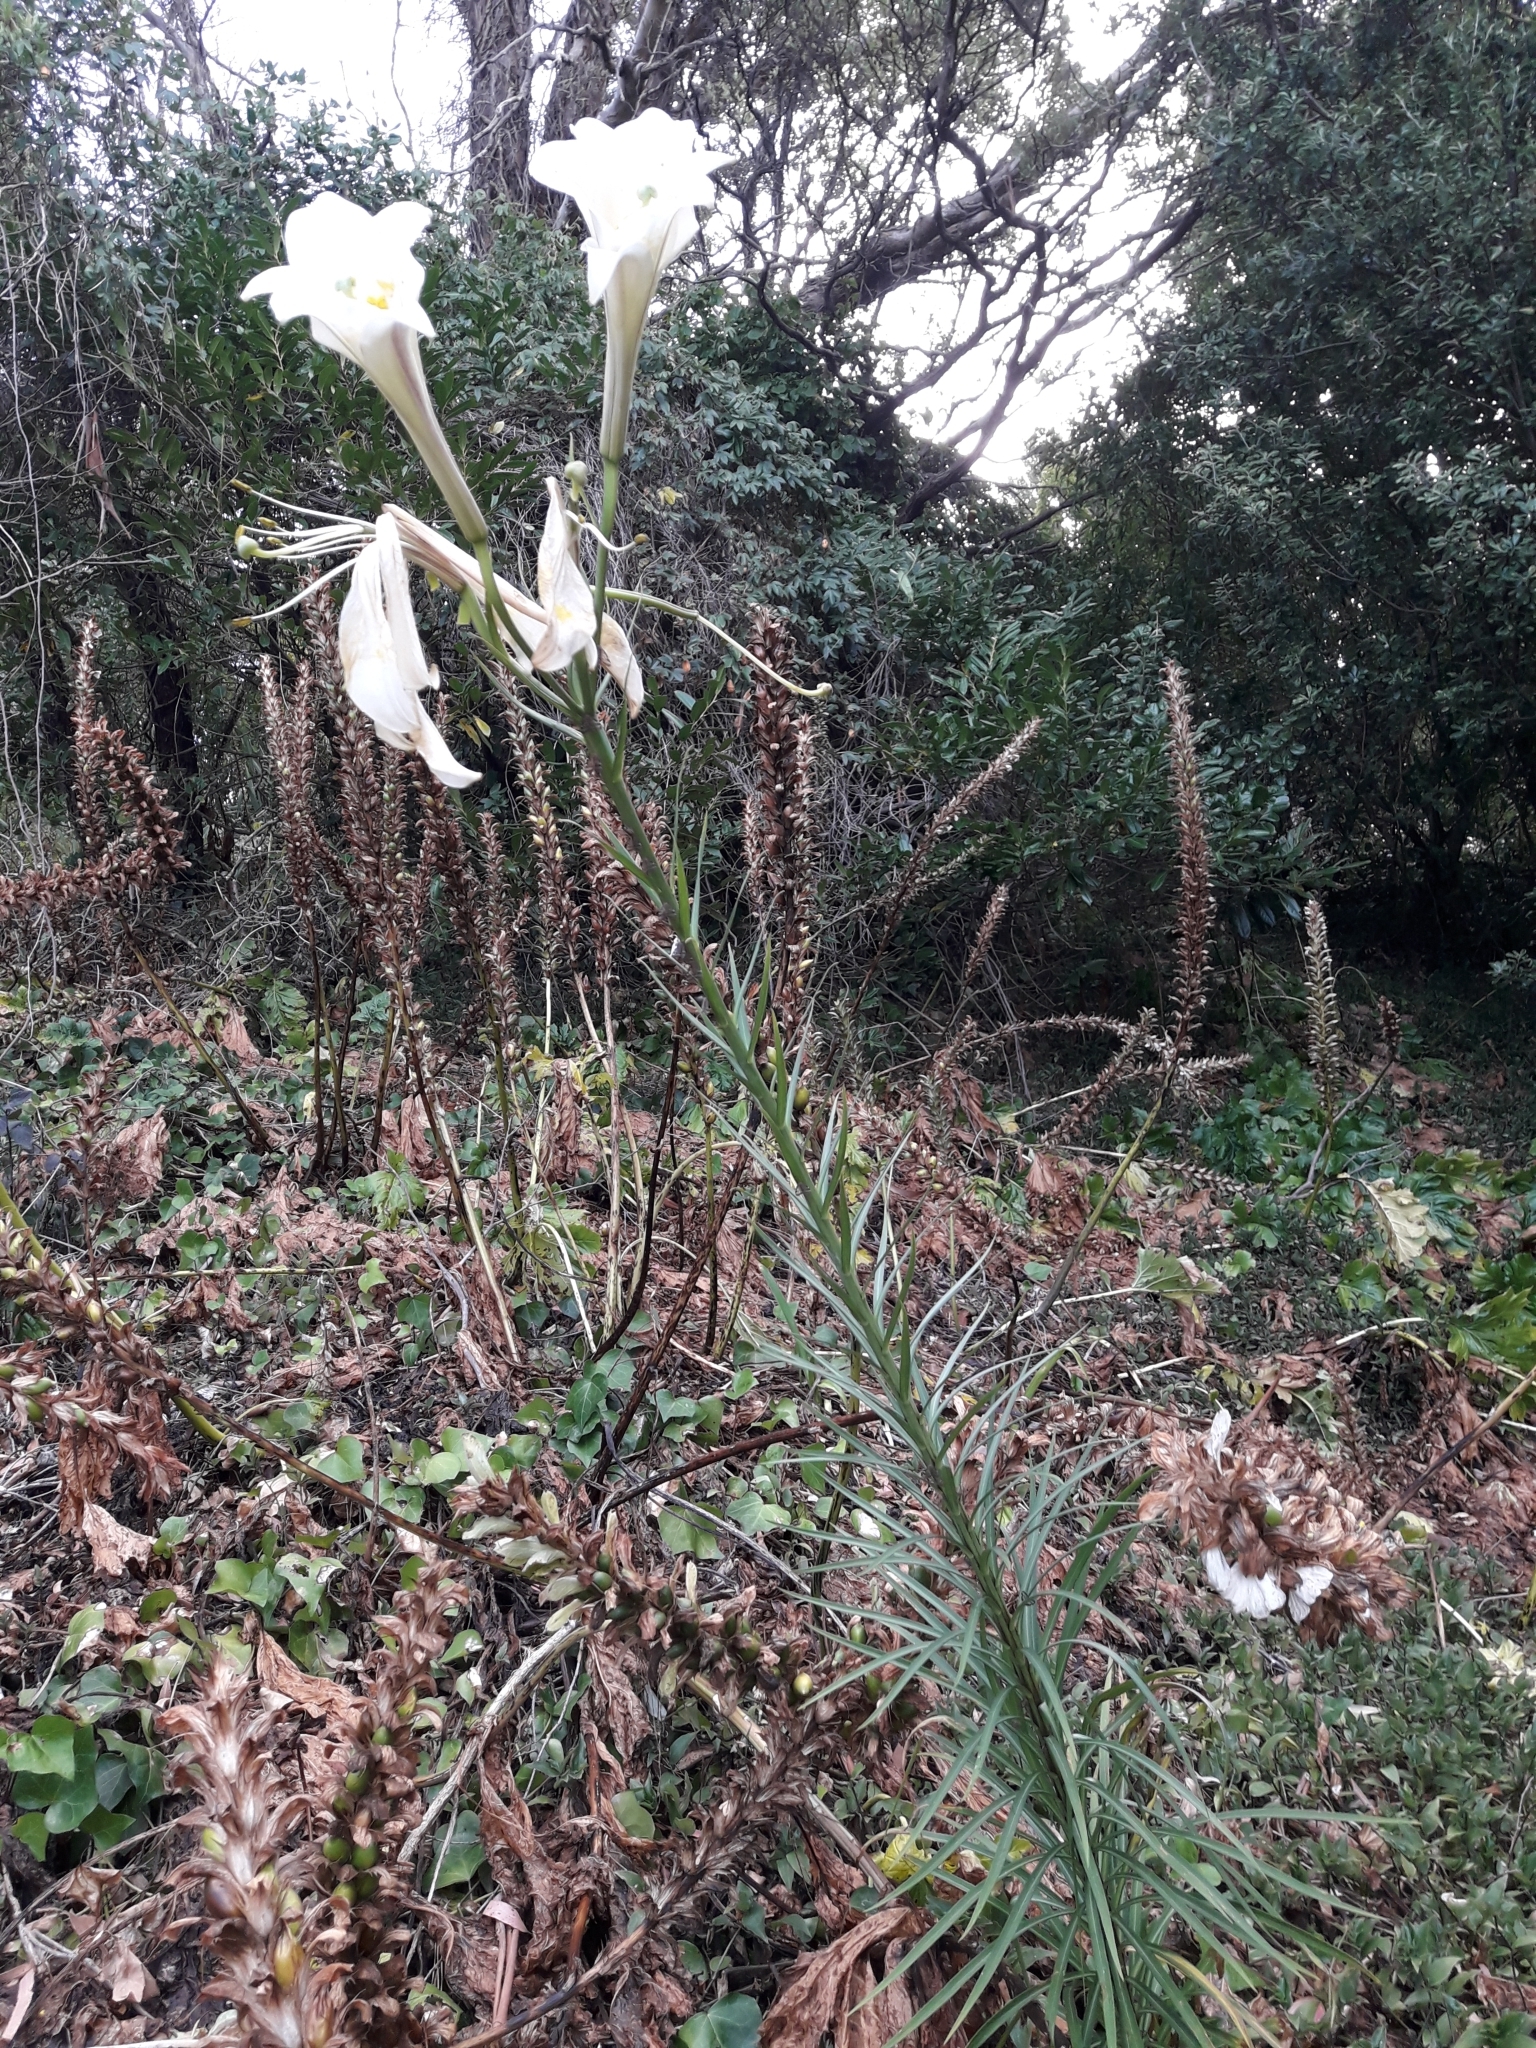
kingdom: Plantae
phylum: Tracheophyta
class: Liliopsida
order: Liliales
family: Liliaceae
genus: Lilium
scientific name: Lilium formosanum
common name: Formosa lily
